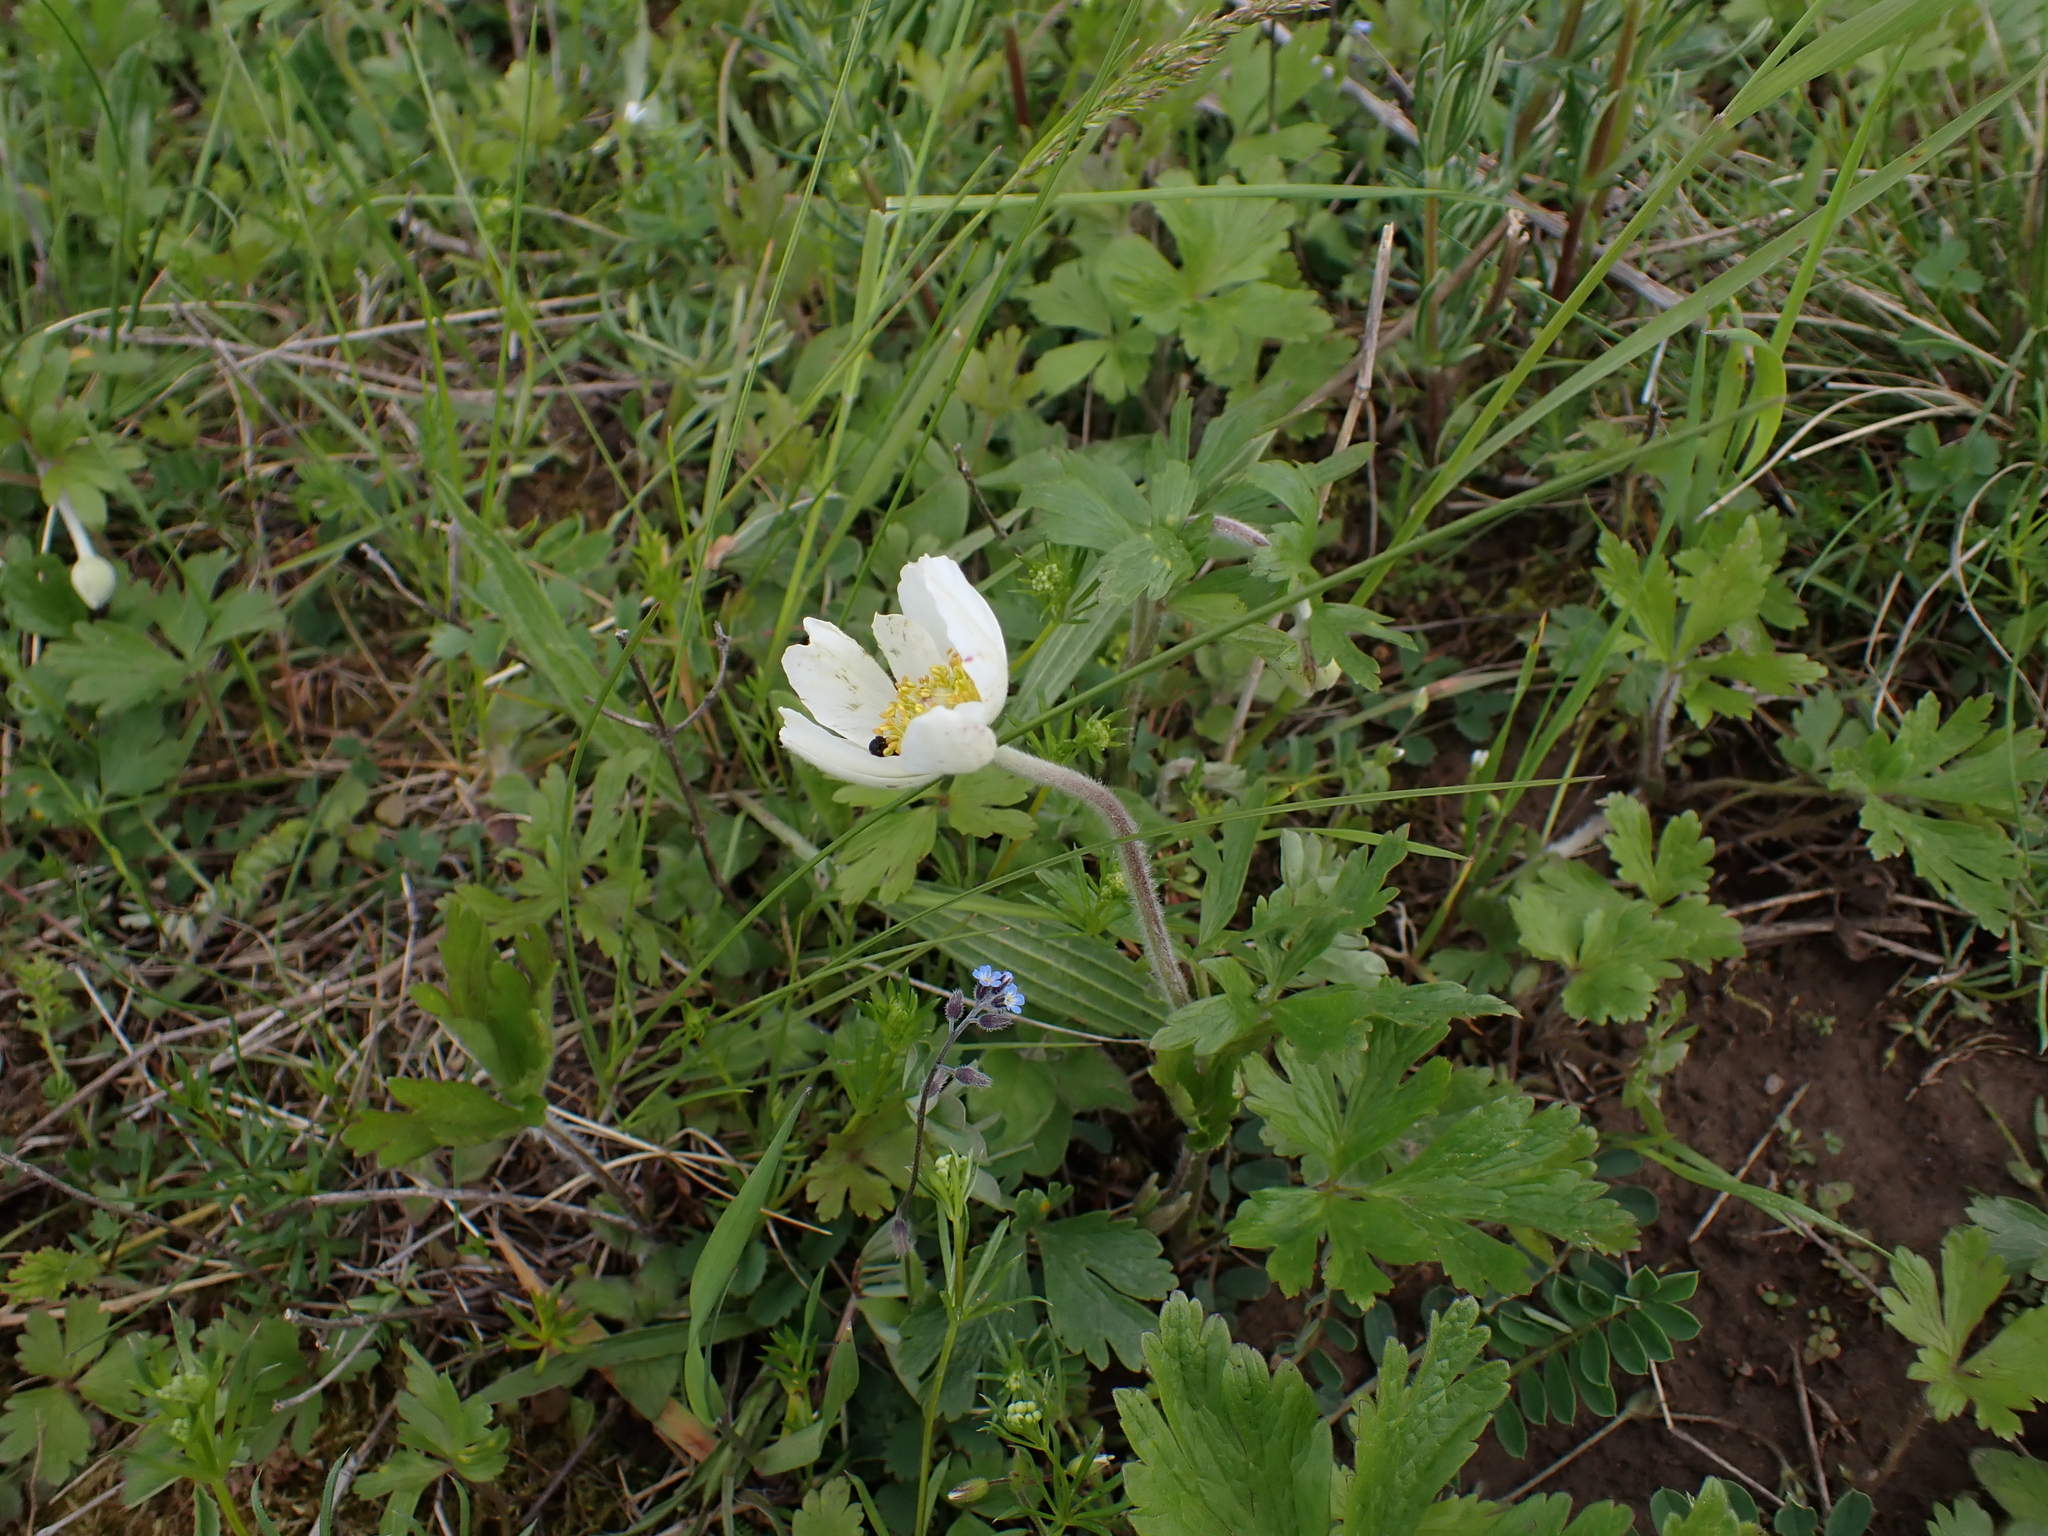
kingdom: Plantae
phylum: Tracheophyta
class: Magnoliopsida
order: Ranunculales
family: Ranunculaceae
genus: Anemone
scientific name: Anemone sylvestris
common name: Snowdrop anemone
